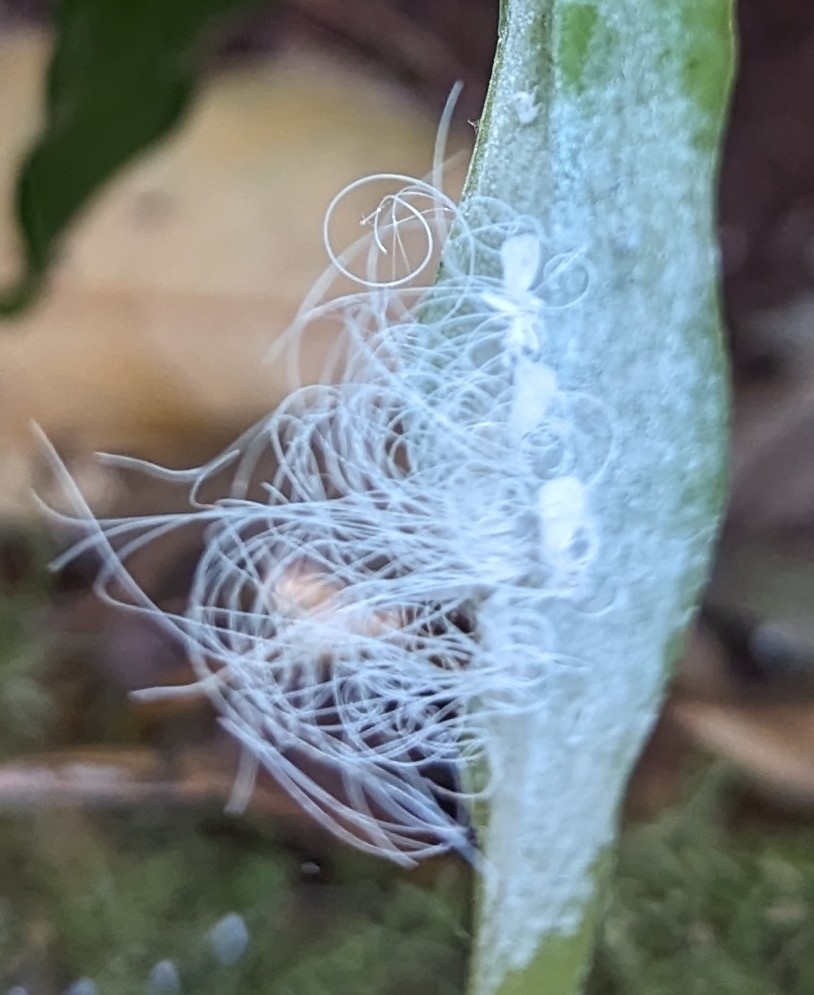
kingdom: Animalia
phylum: Arthropoda
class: Insecta
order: Hemiptera
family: Aleyrodidae
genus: Aleuroctarthrus
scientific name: Aleuroctarthrus
